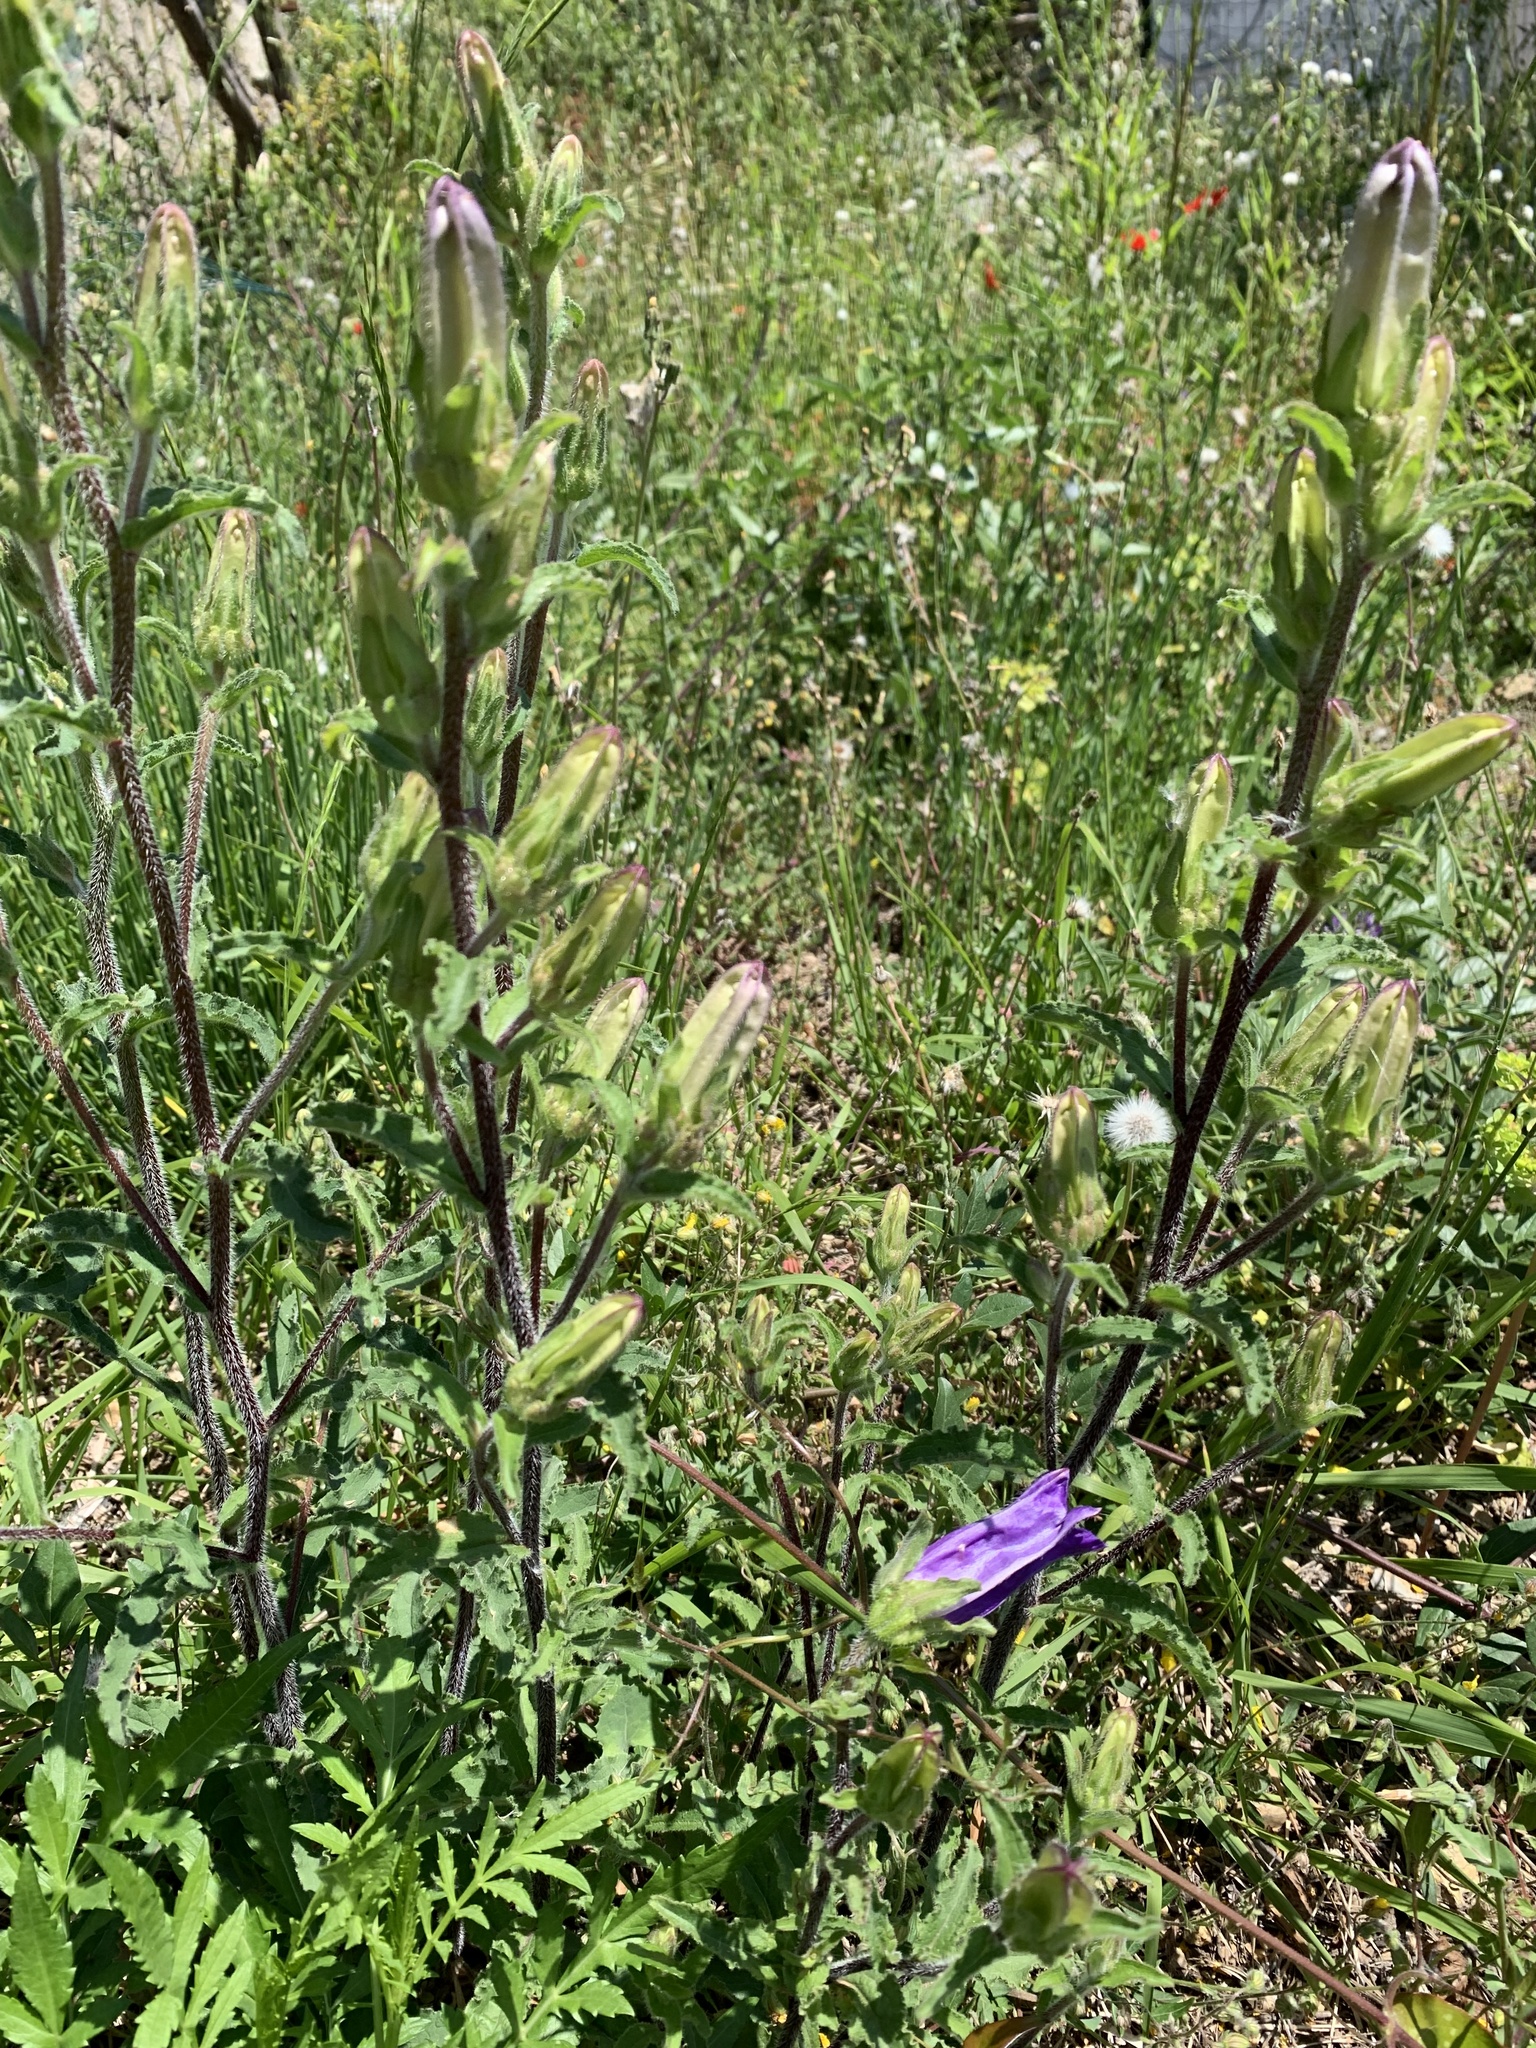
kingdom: Plantae
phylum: Tracheophyta
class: Magnoliopsida
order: Asterales
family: Campanulaceae
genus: Campanula
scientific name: Campanula medium
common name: Canterbury bells
